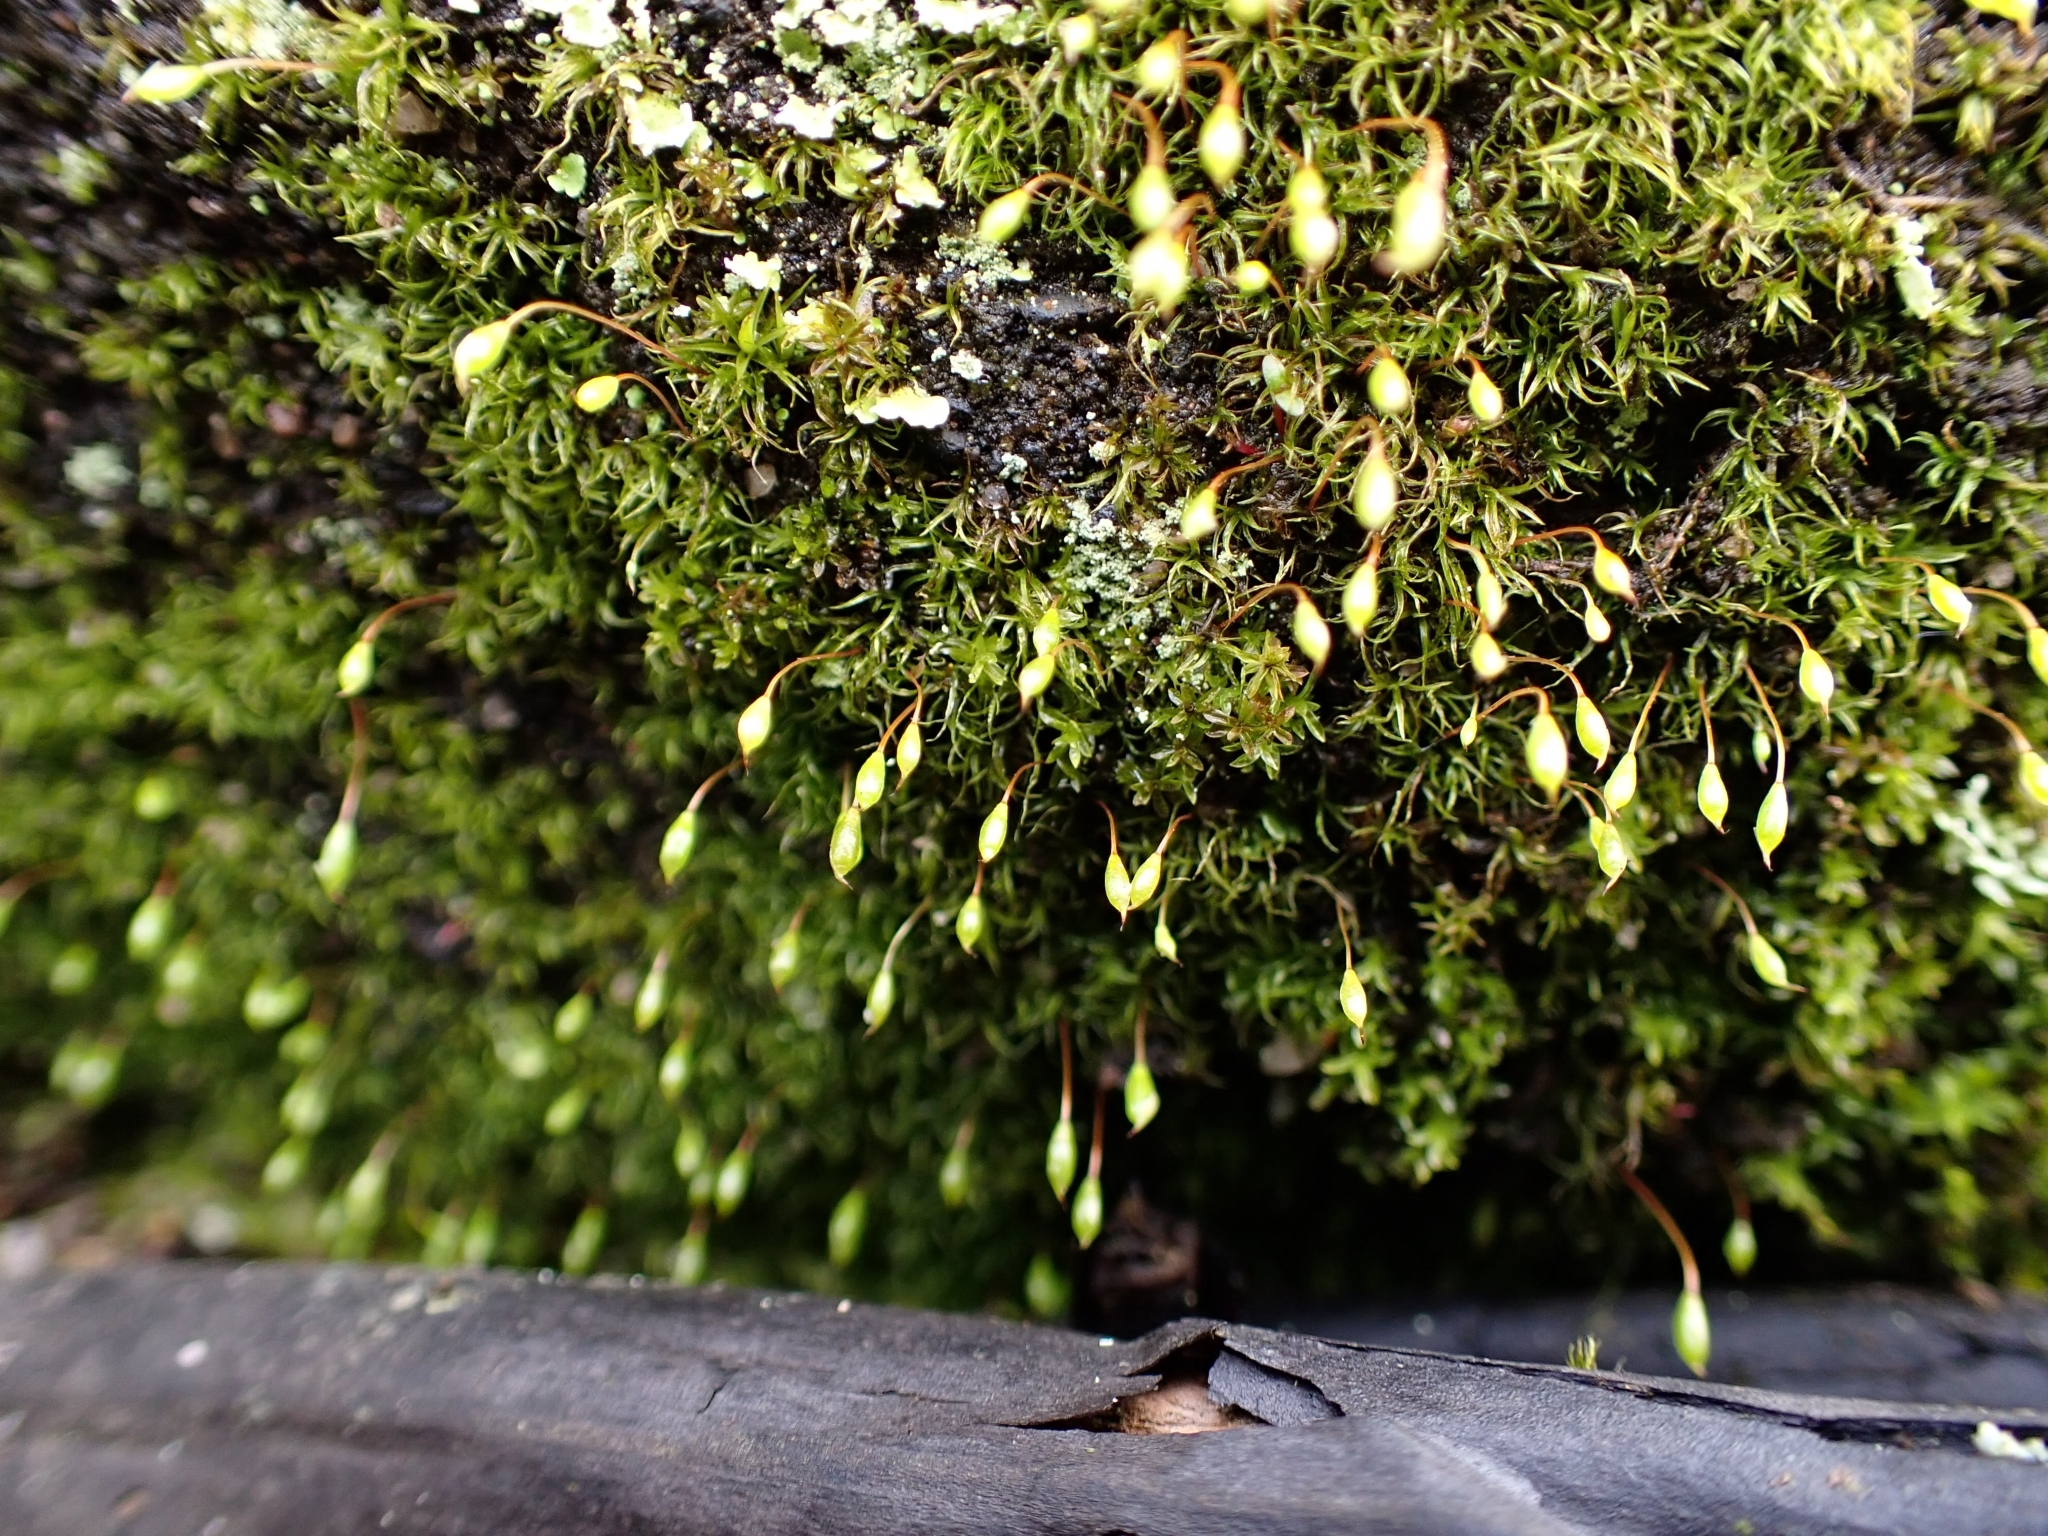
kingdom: Plantae
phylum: Bryophyta
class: Bryopsida
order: Orthodontiales
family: Orthodontiaceae
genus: Orthodontium
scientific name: Orthodontium lineare
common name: Cape thread-moss
